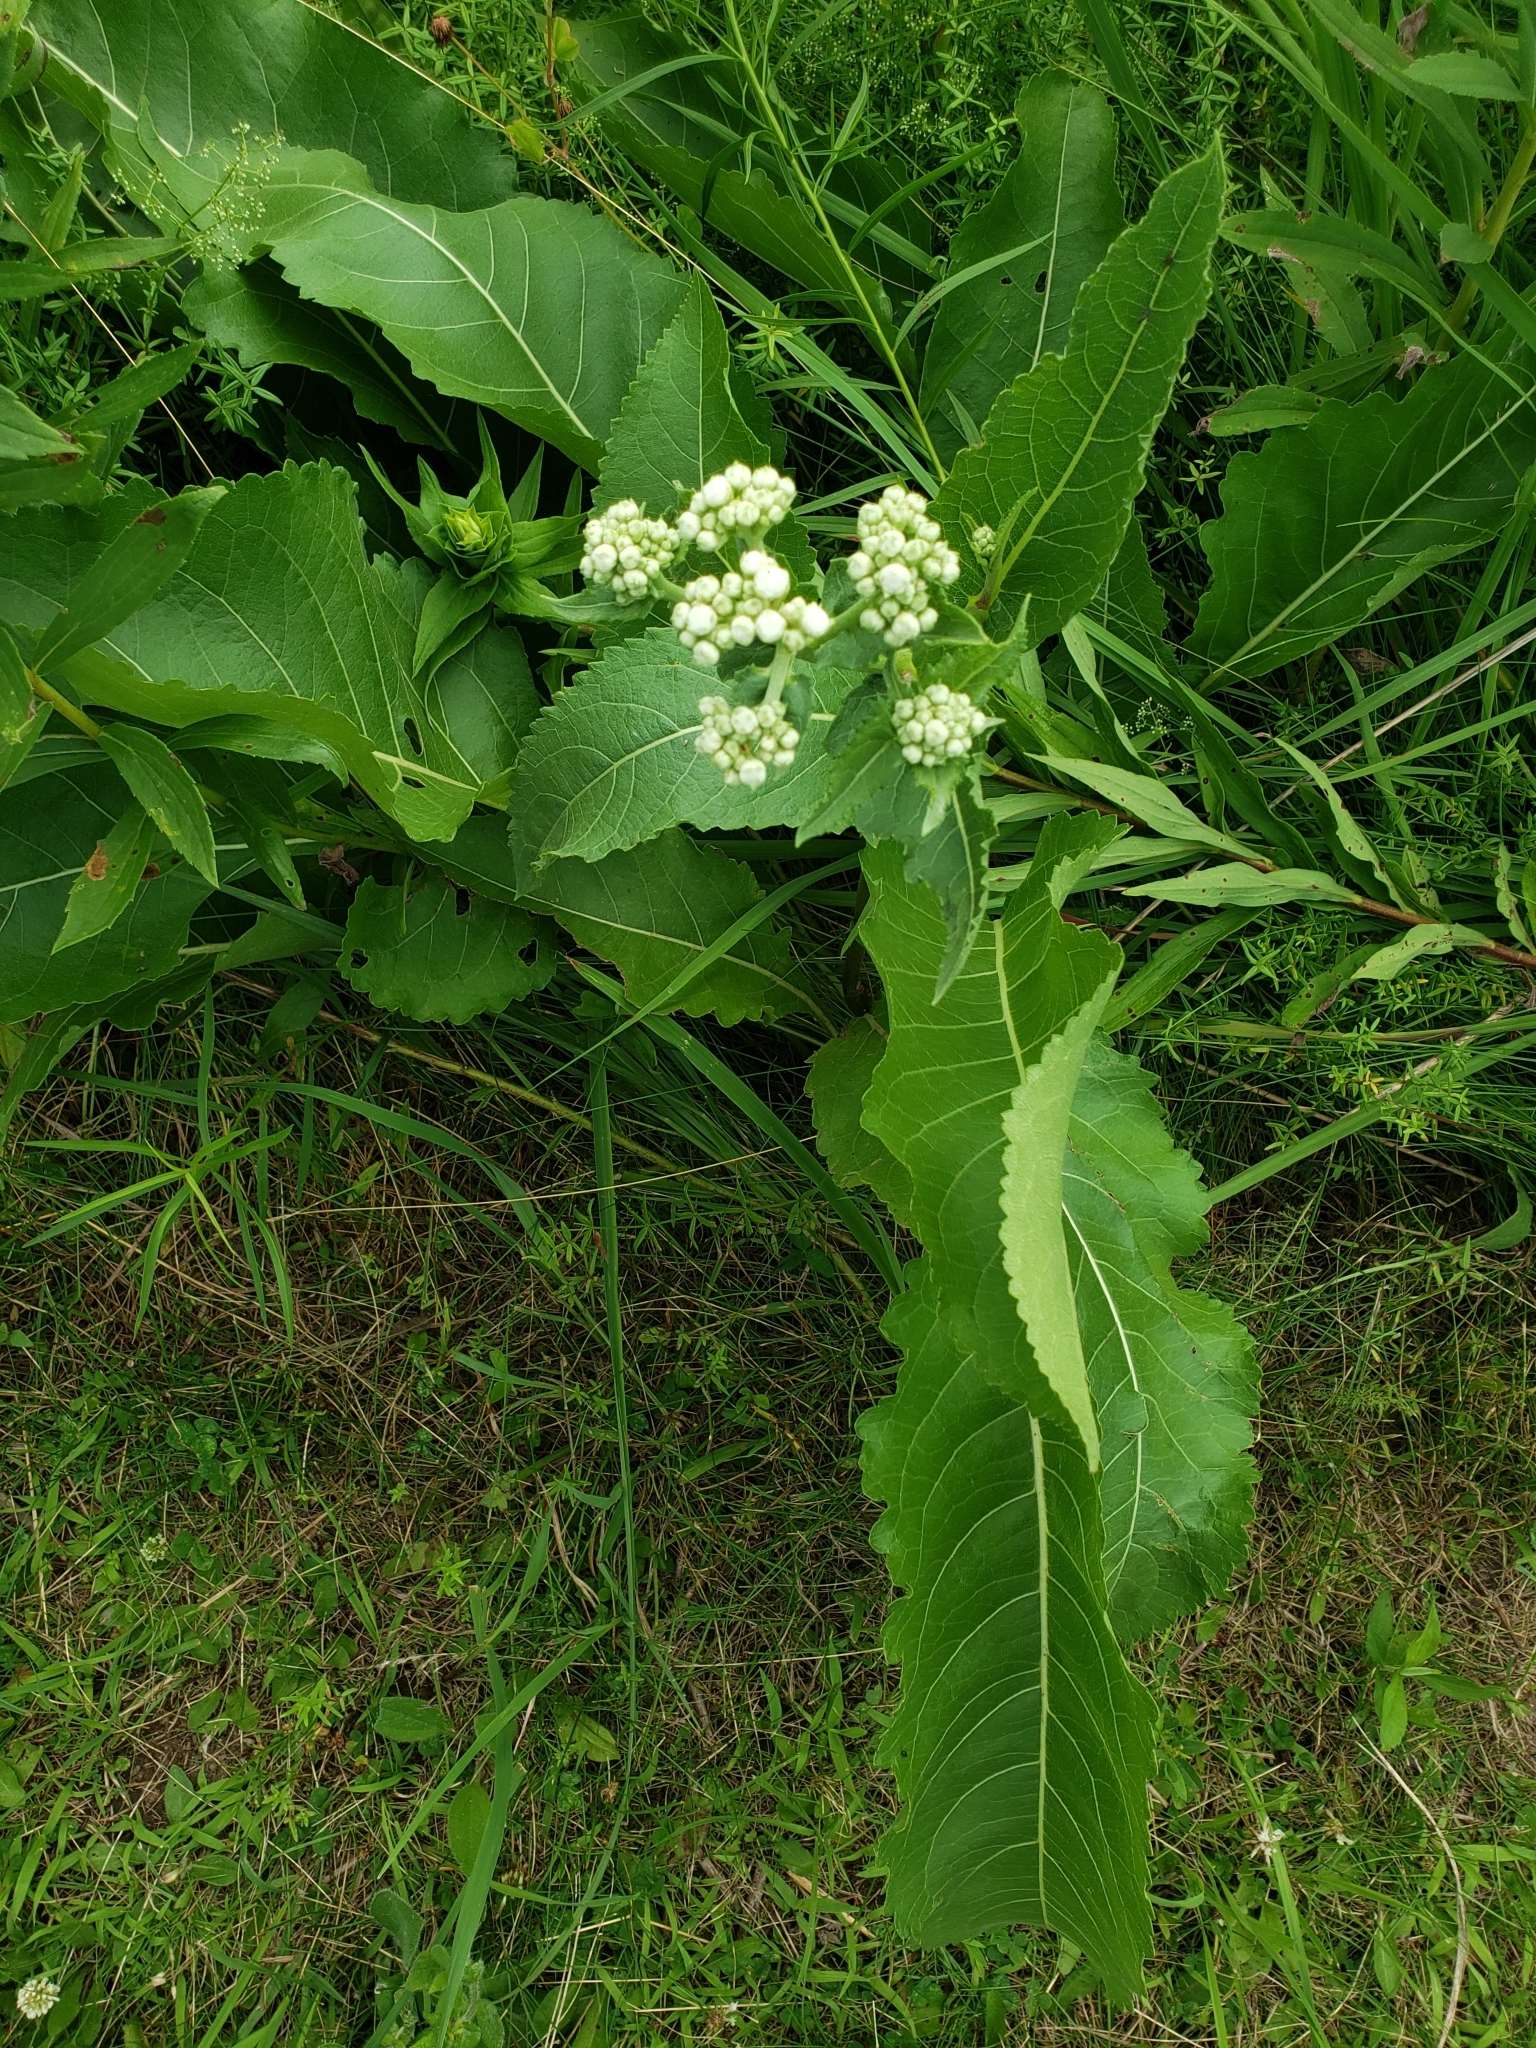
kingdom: Plantae
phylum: Tracheophyta
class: Magnoliopsida
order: Asterales
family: Asteraceae
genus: Parthenium
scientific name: Parthenium integrifolium
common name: American feverfew
